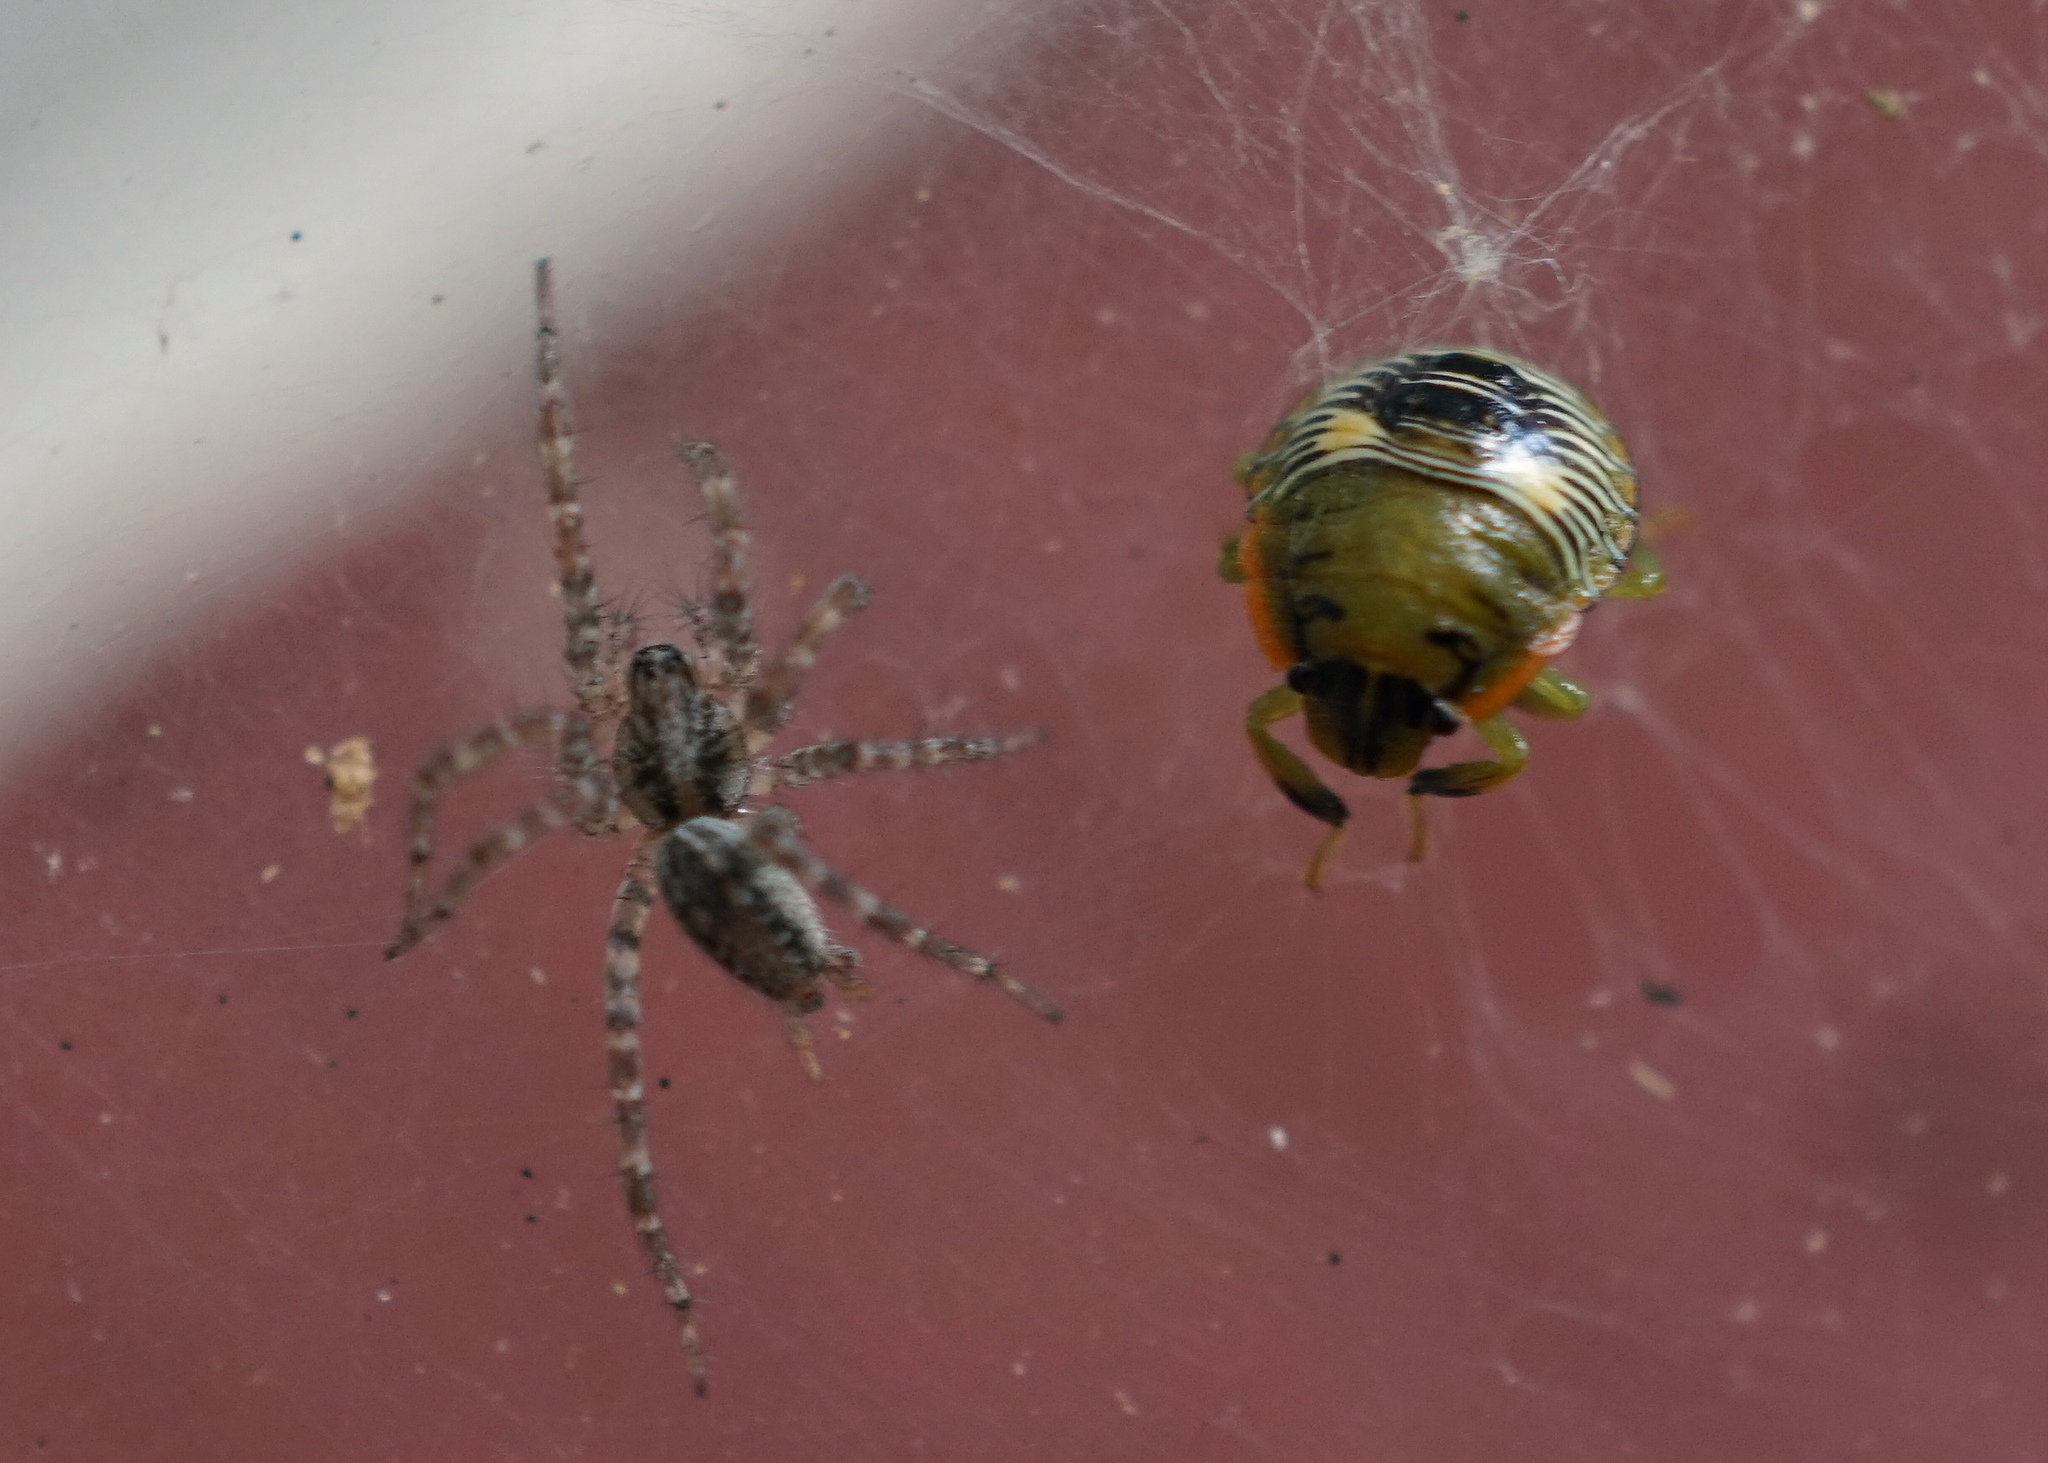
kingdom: Animalia
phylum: Arthropoda
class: Insecta
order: Hemiptera
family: Pentatomidae
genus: Chinavia
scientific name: Chinavia hilaris
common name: Green stink bug
